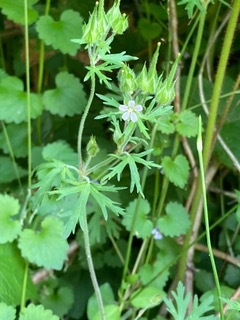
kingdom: Plantae
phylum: Tracheophyta
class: Magnoliopsida
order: Geraniales
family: Geraniaceae
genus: Geranium
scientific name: Geranium carolinianum
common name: Carolina crane's-bill
